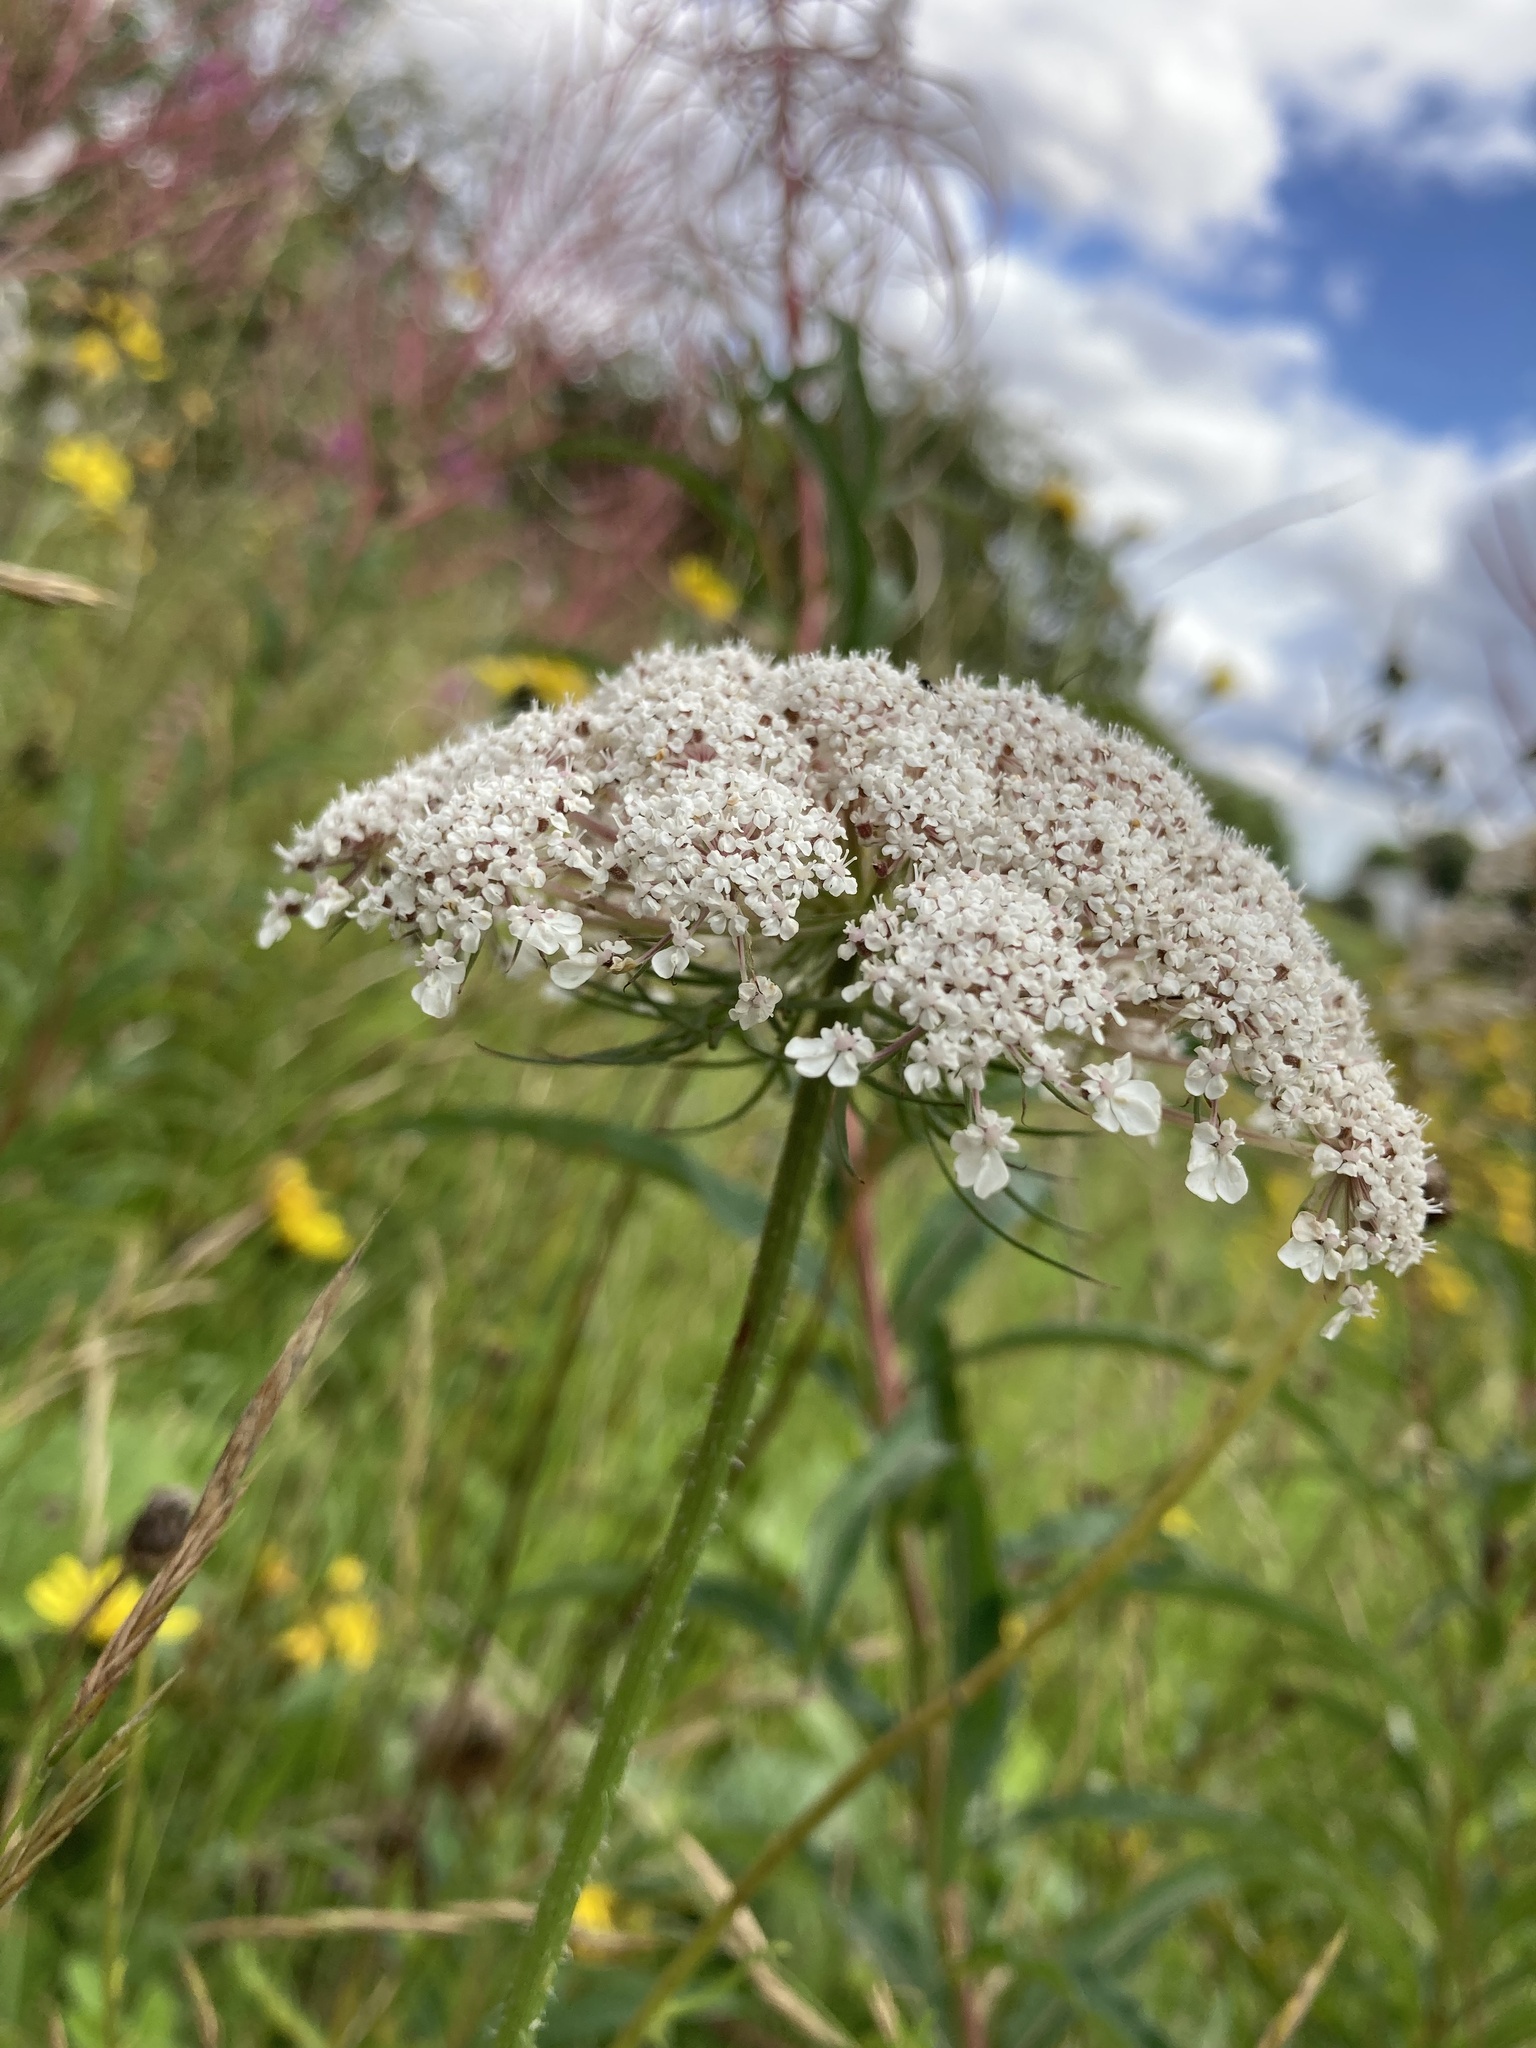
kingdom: Plantae
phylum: Tracheophyta
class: Magnoliopsida
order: Apiales
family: Apiaceae
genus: Daucus
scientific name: Daucus carota
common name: Wild carrot
